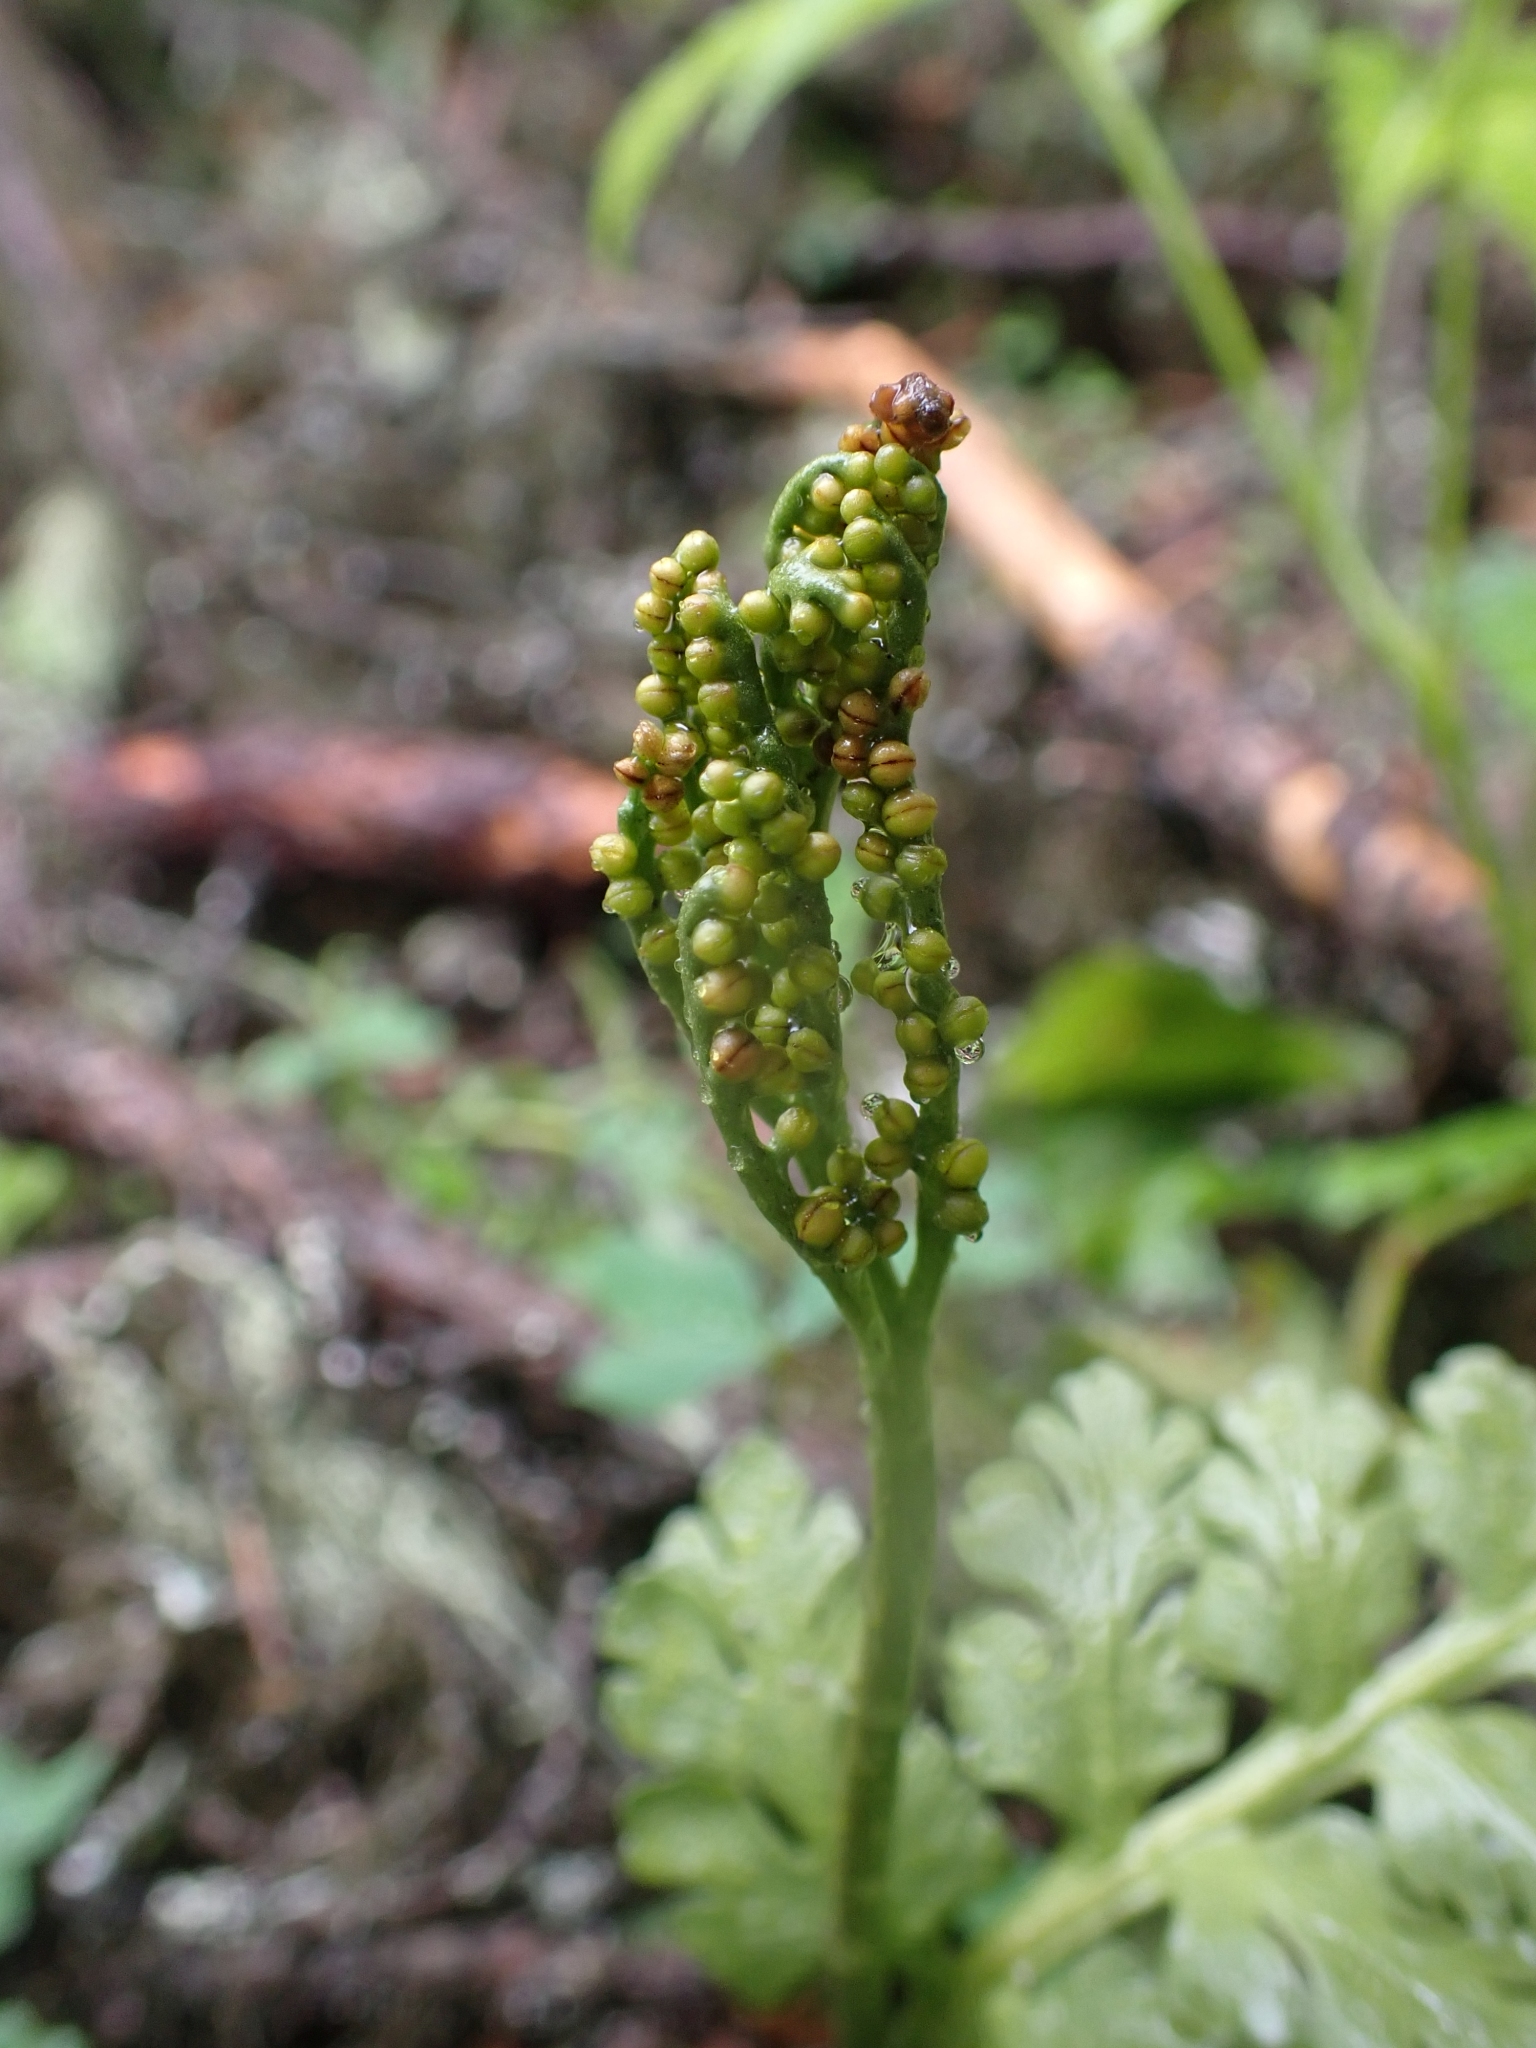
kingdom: Plantae
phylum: Tracheophyta
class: Polypodiopsida
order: Ophioglossales
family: Ophioglossaceae
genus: Botrychium
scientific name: Botrychium pinnatum
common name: Northwestern moonwort
